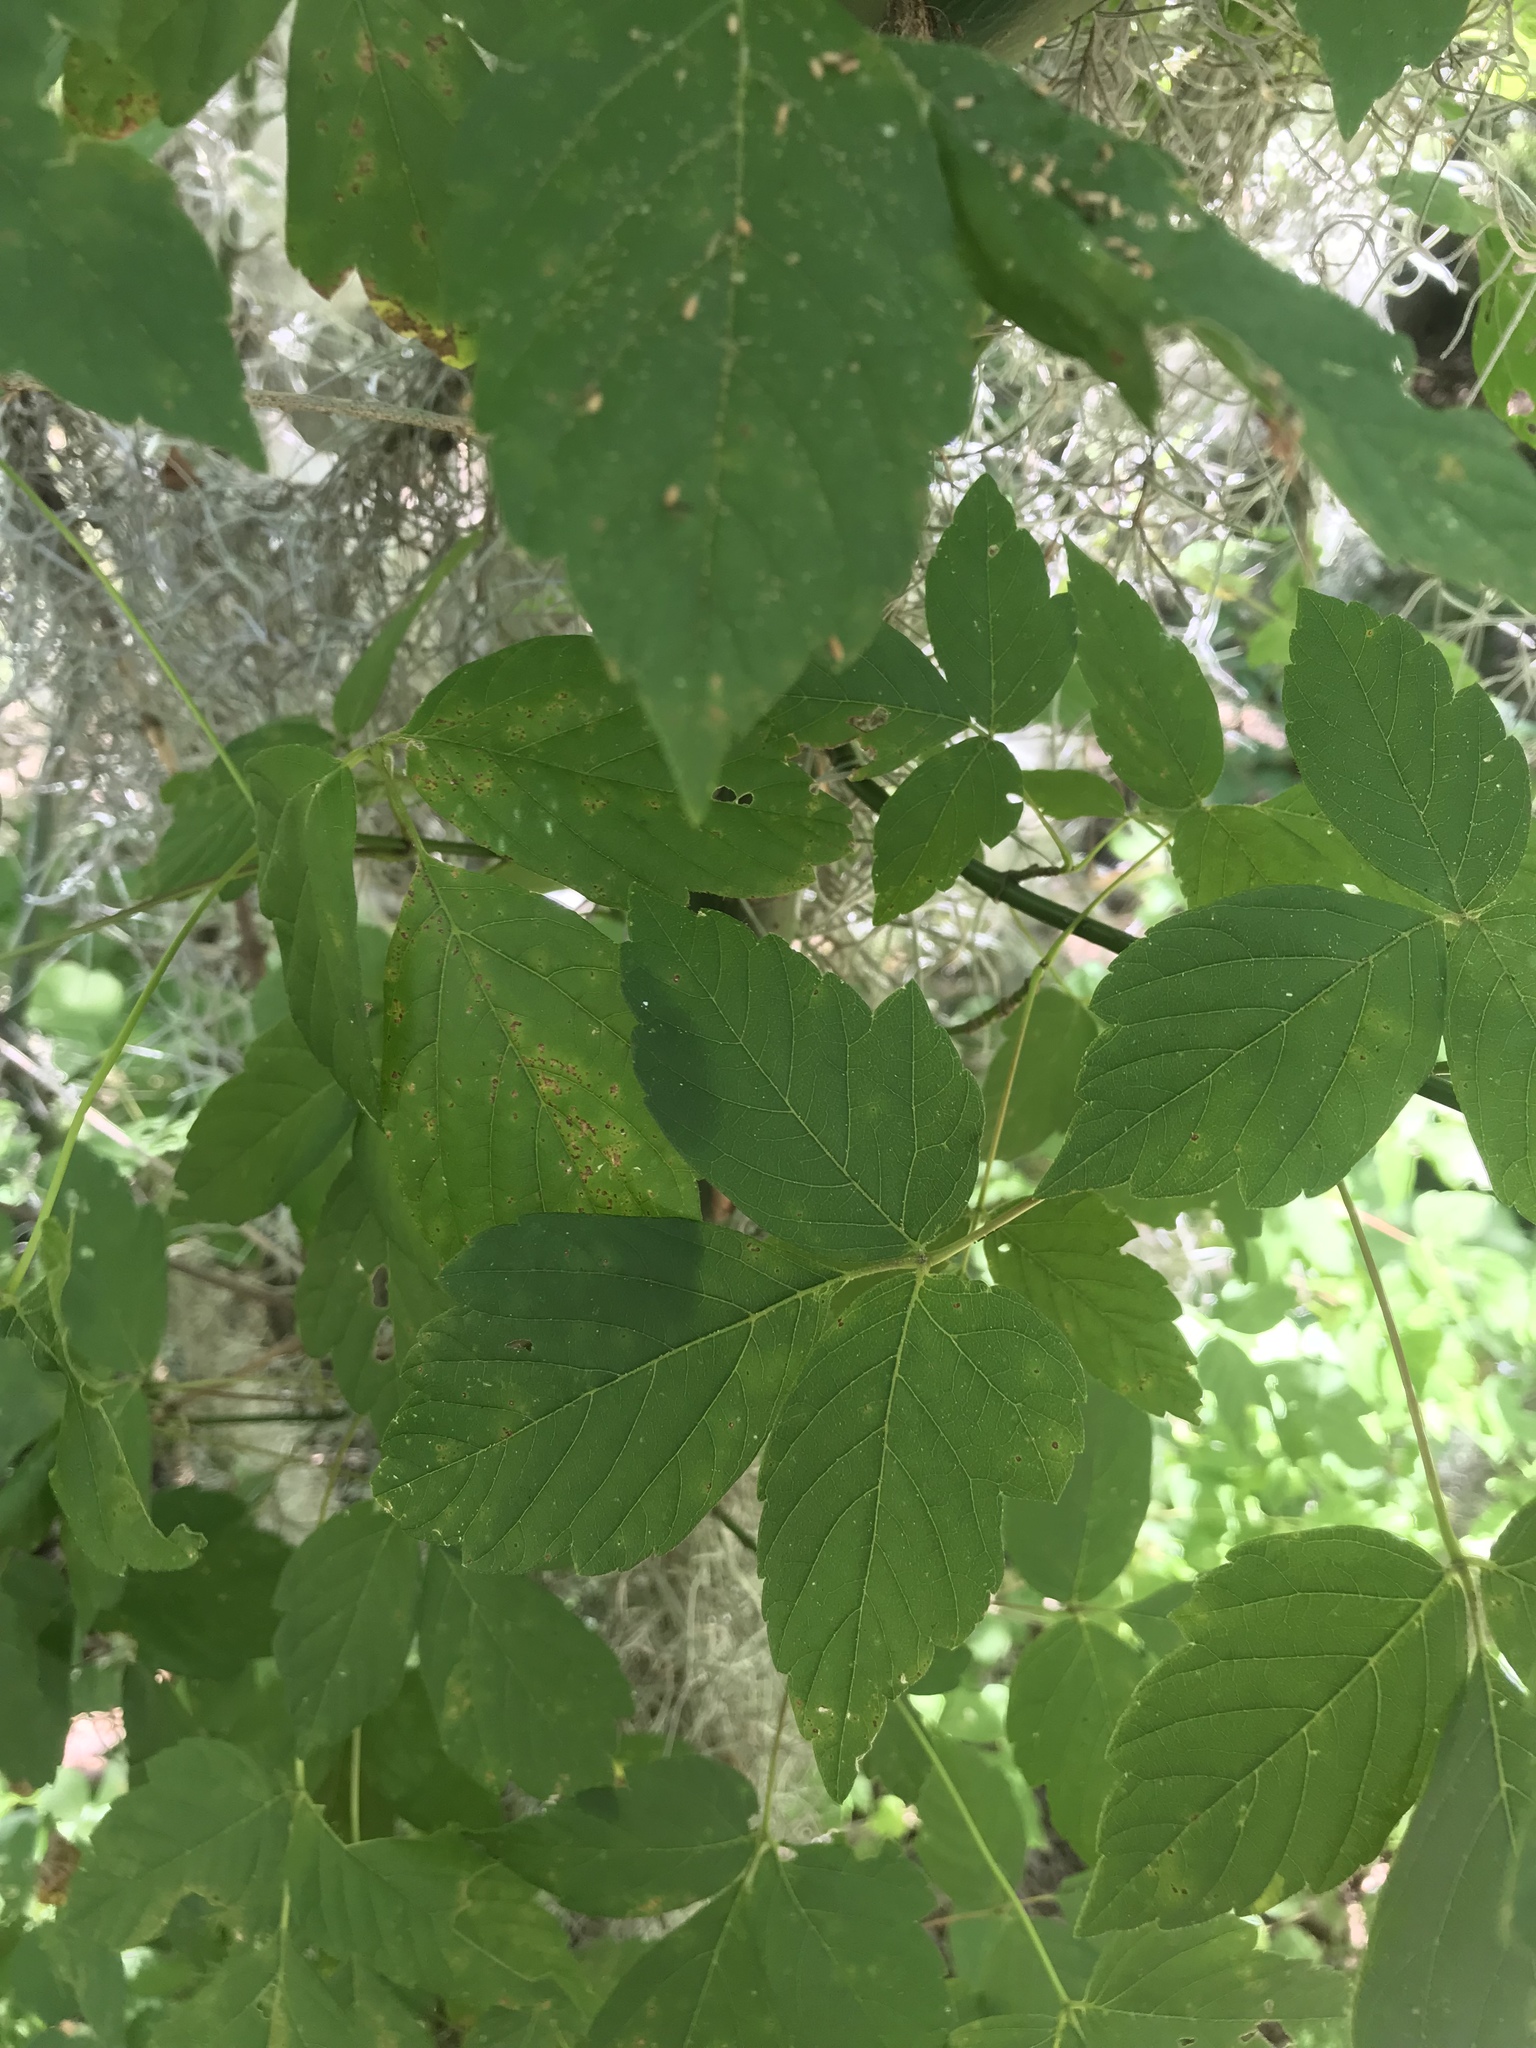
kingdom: Plantae
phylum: Tracheophyta
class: Magnoliopsida
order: Sapindales
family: Sapindaceae
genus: Acer
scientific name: Acer negundo
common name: Ashleaf maple
